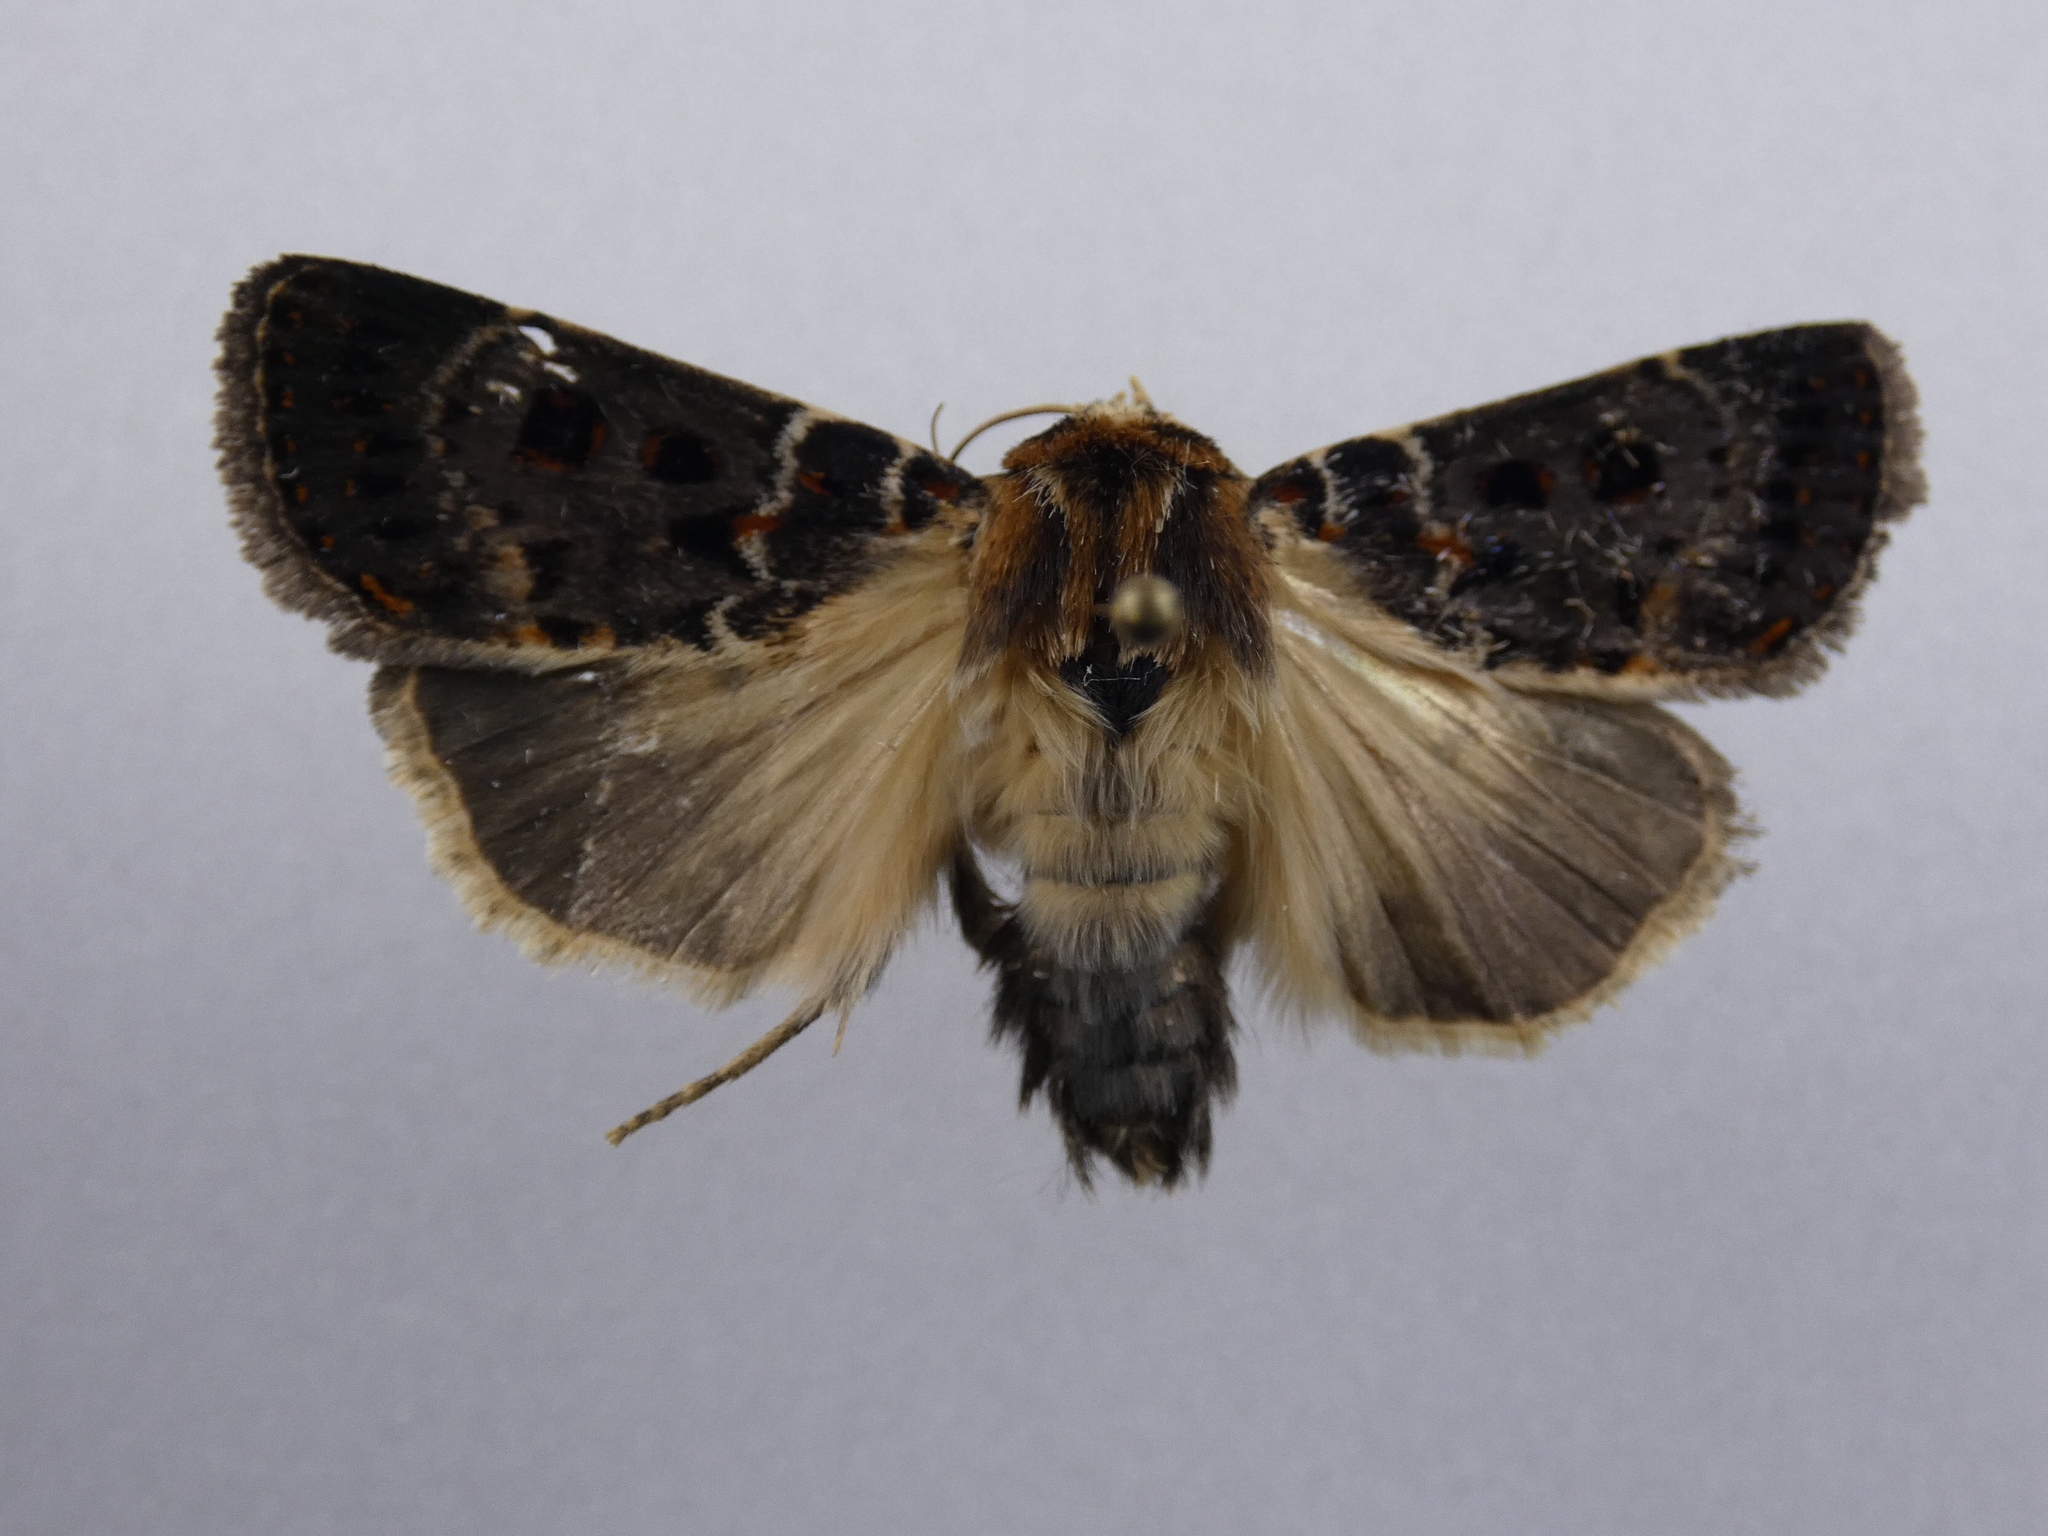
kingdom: Animalia
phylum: Arthropoda
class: Insecta
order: Lepidoptera
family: Noctuidae
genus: Proteuxoa
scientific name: Proteuxoa sanguinipuncta
